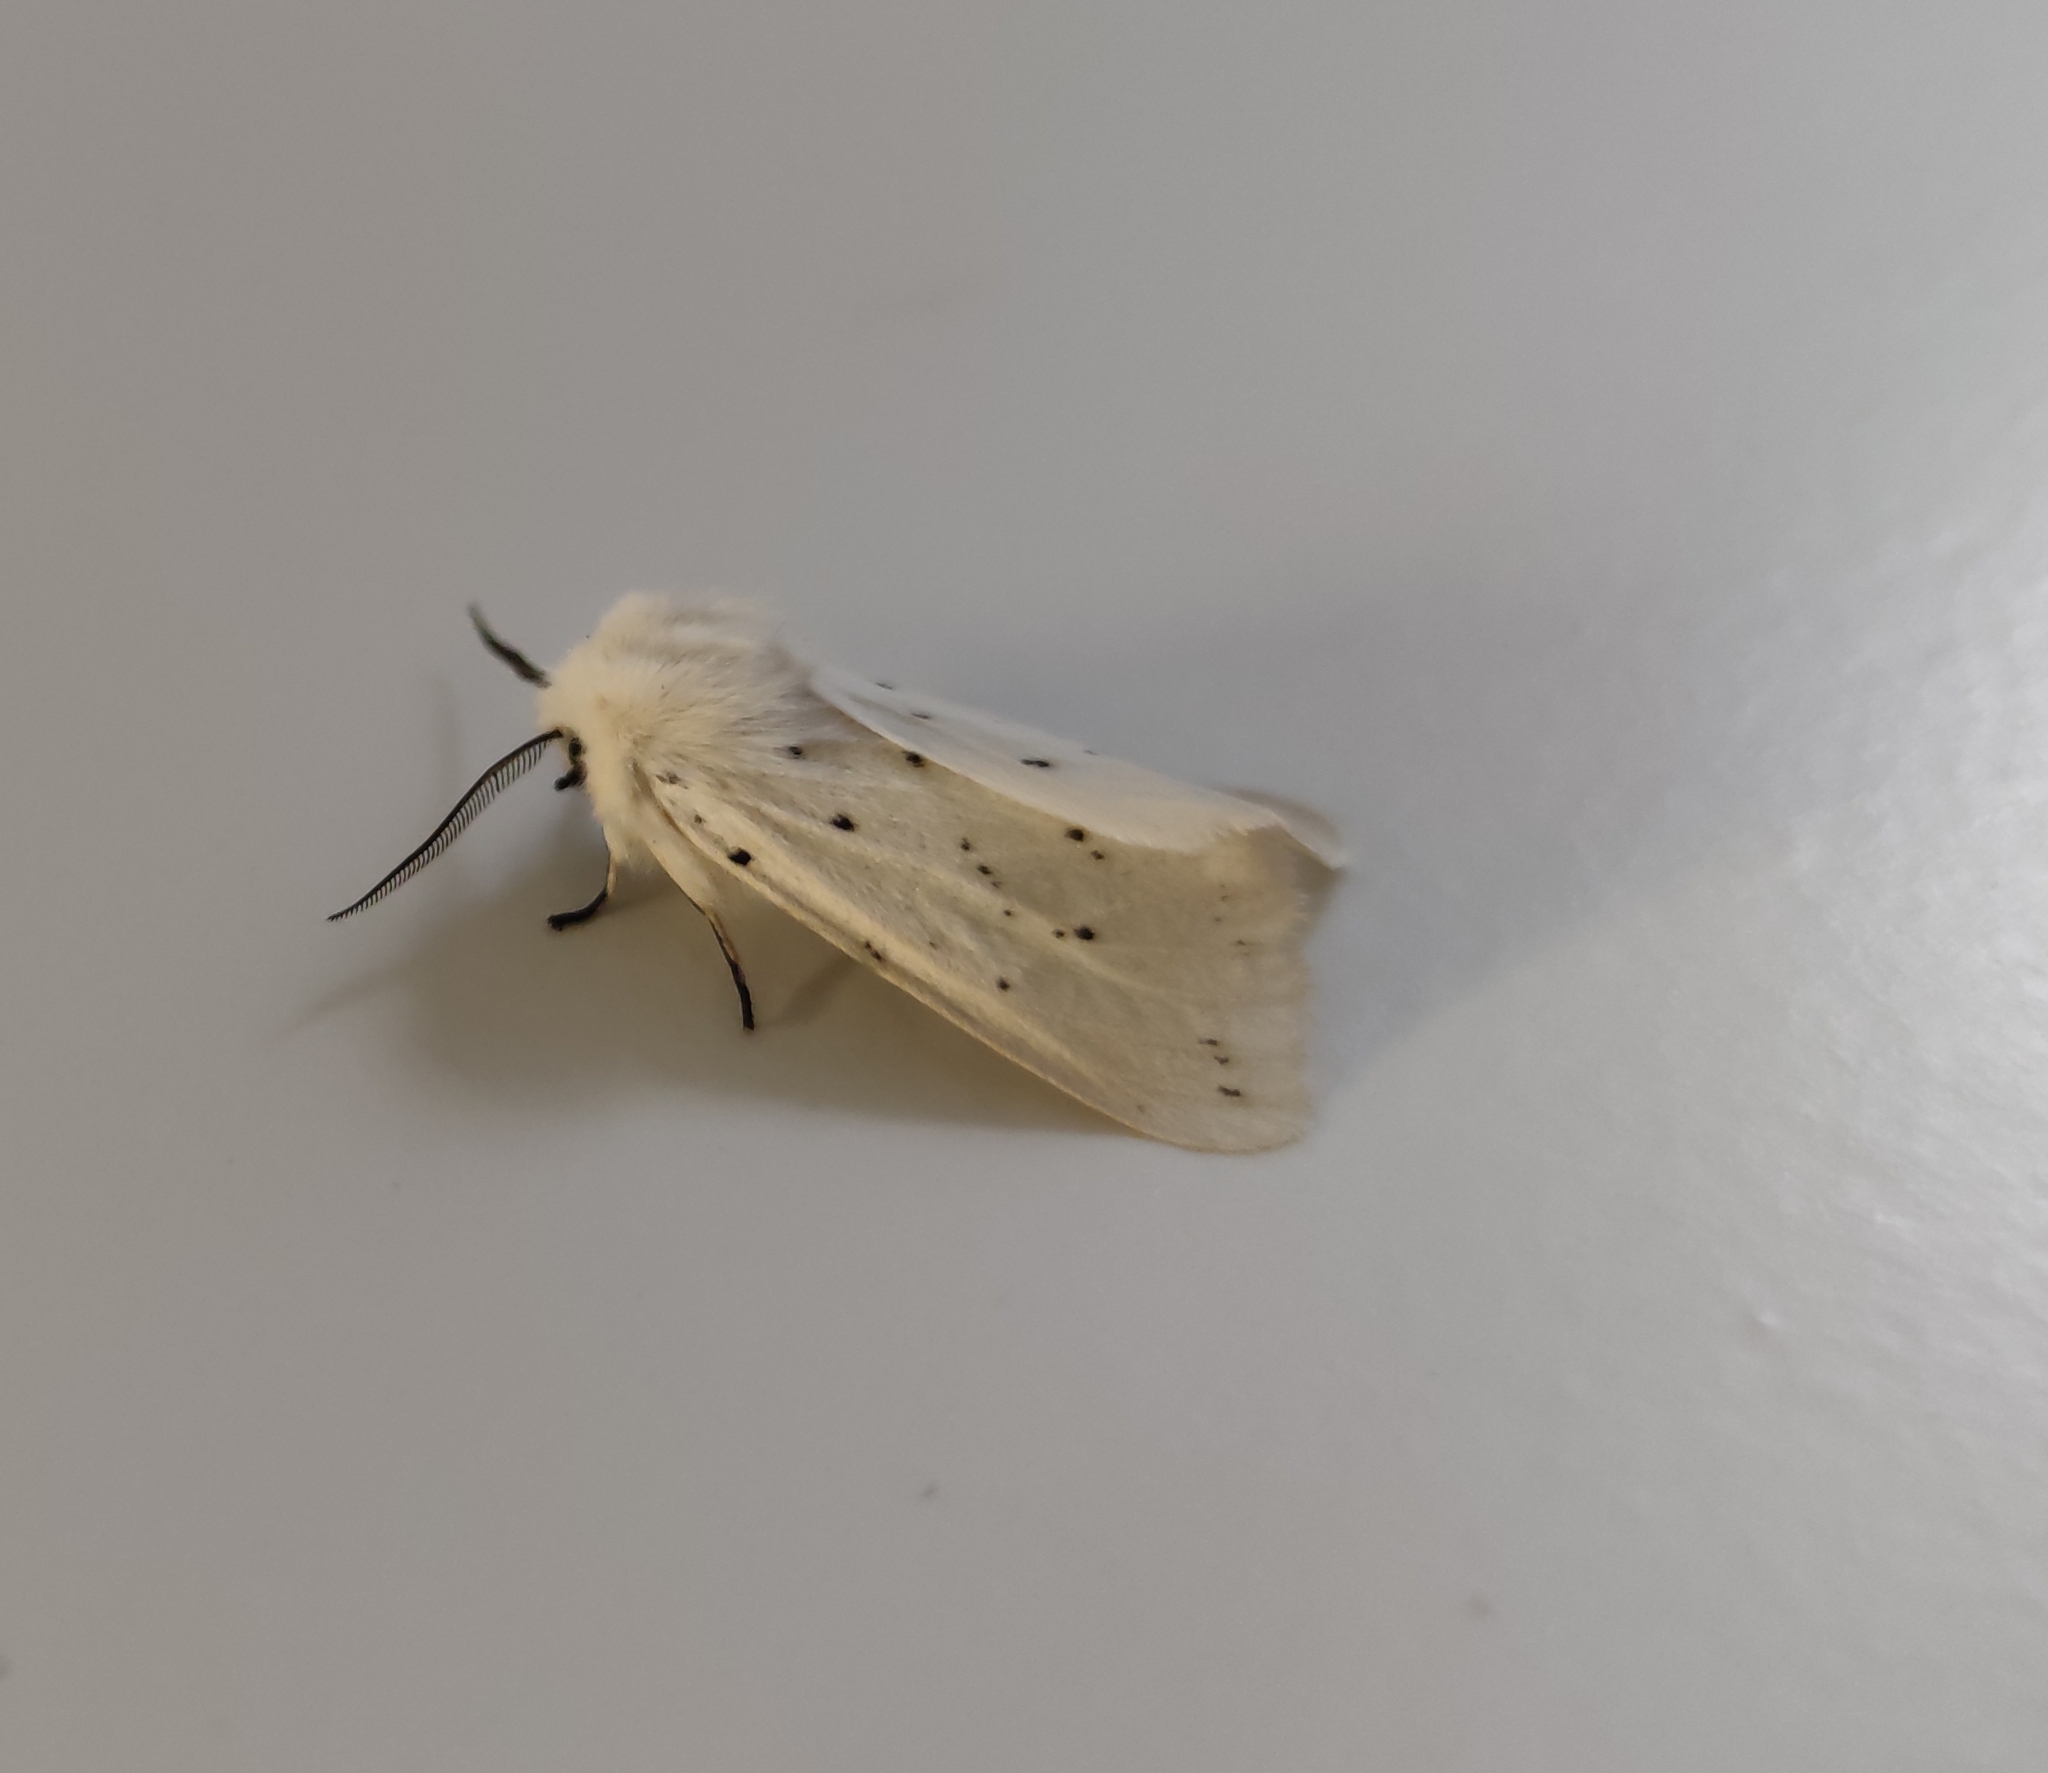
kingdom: Animalia
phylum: Arthropoda
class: Insecta
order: Lepidoptera
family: Erebidae
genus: Spilosoma
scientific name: Spilosoma lubricipeda
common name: White ermine
